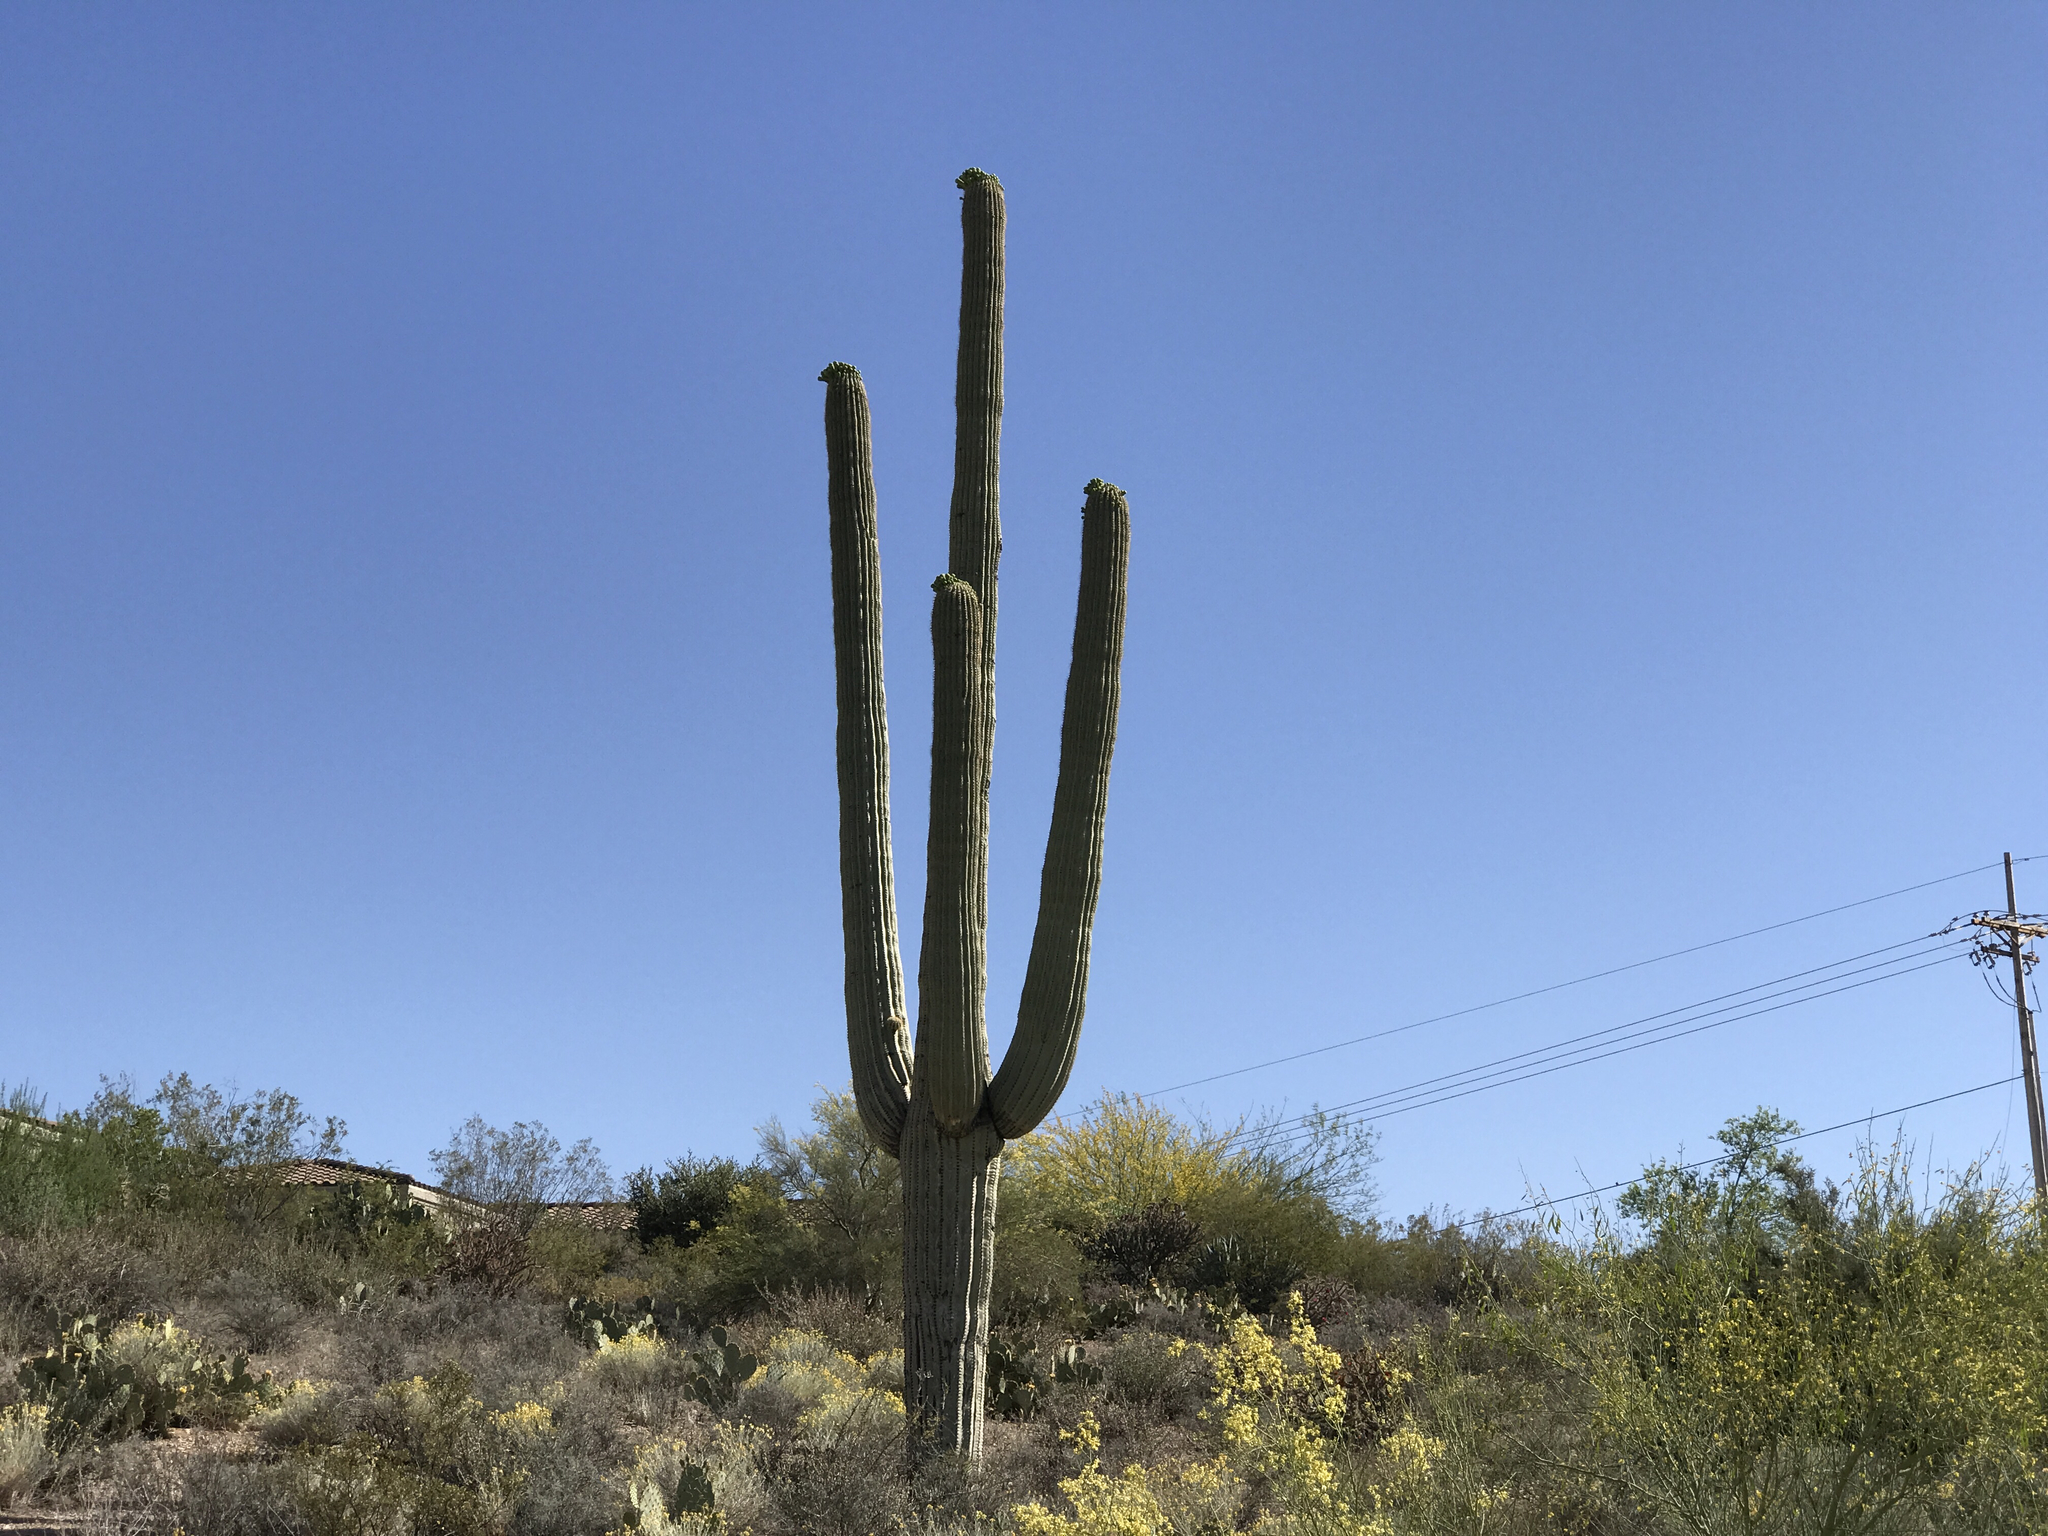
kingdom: Plantae
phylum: Tracheophyta
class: Magnoliopsida
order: Caryophyllales
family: Cactaceae
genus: Carnegiea
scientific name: Carnegiea gigantea
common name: Saguaro
